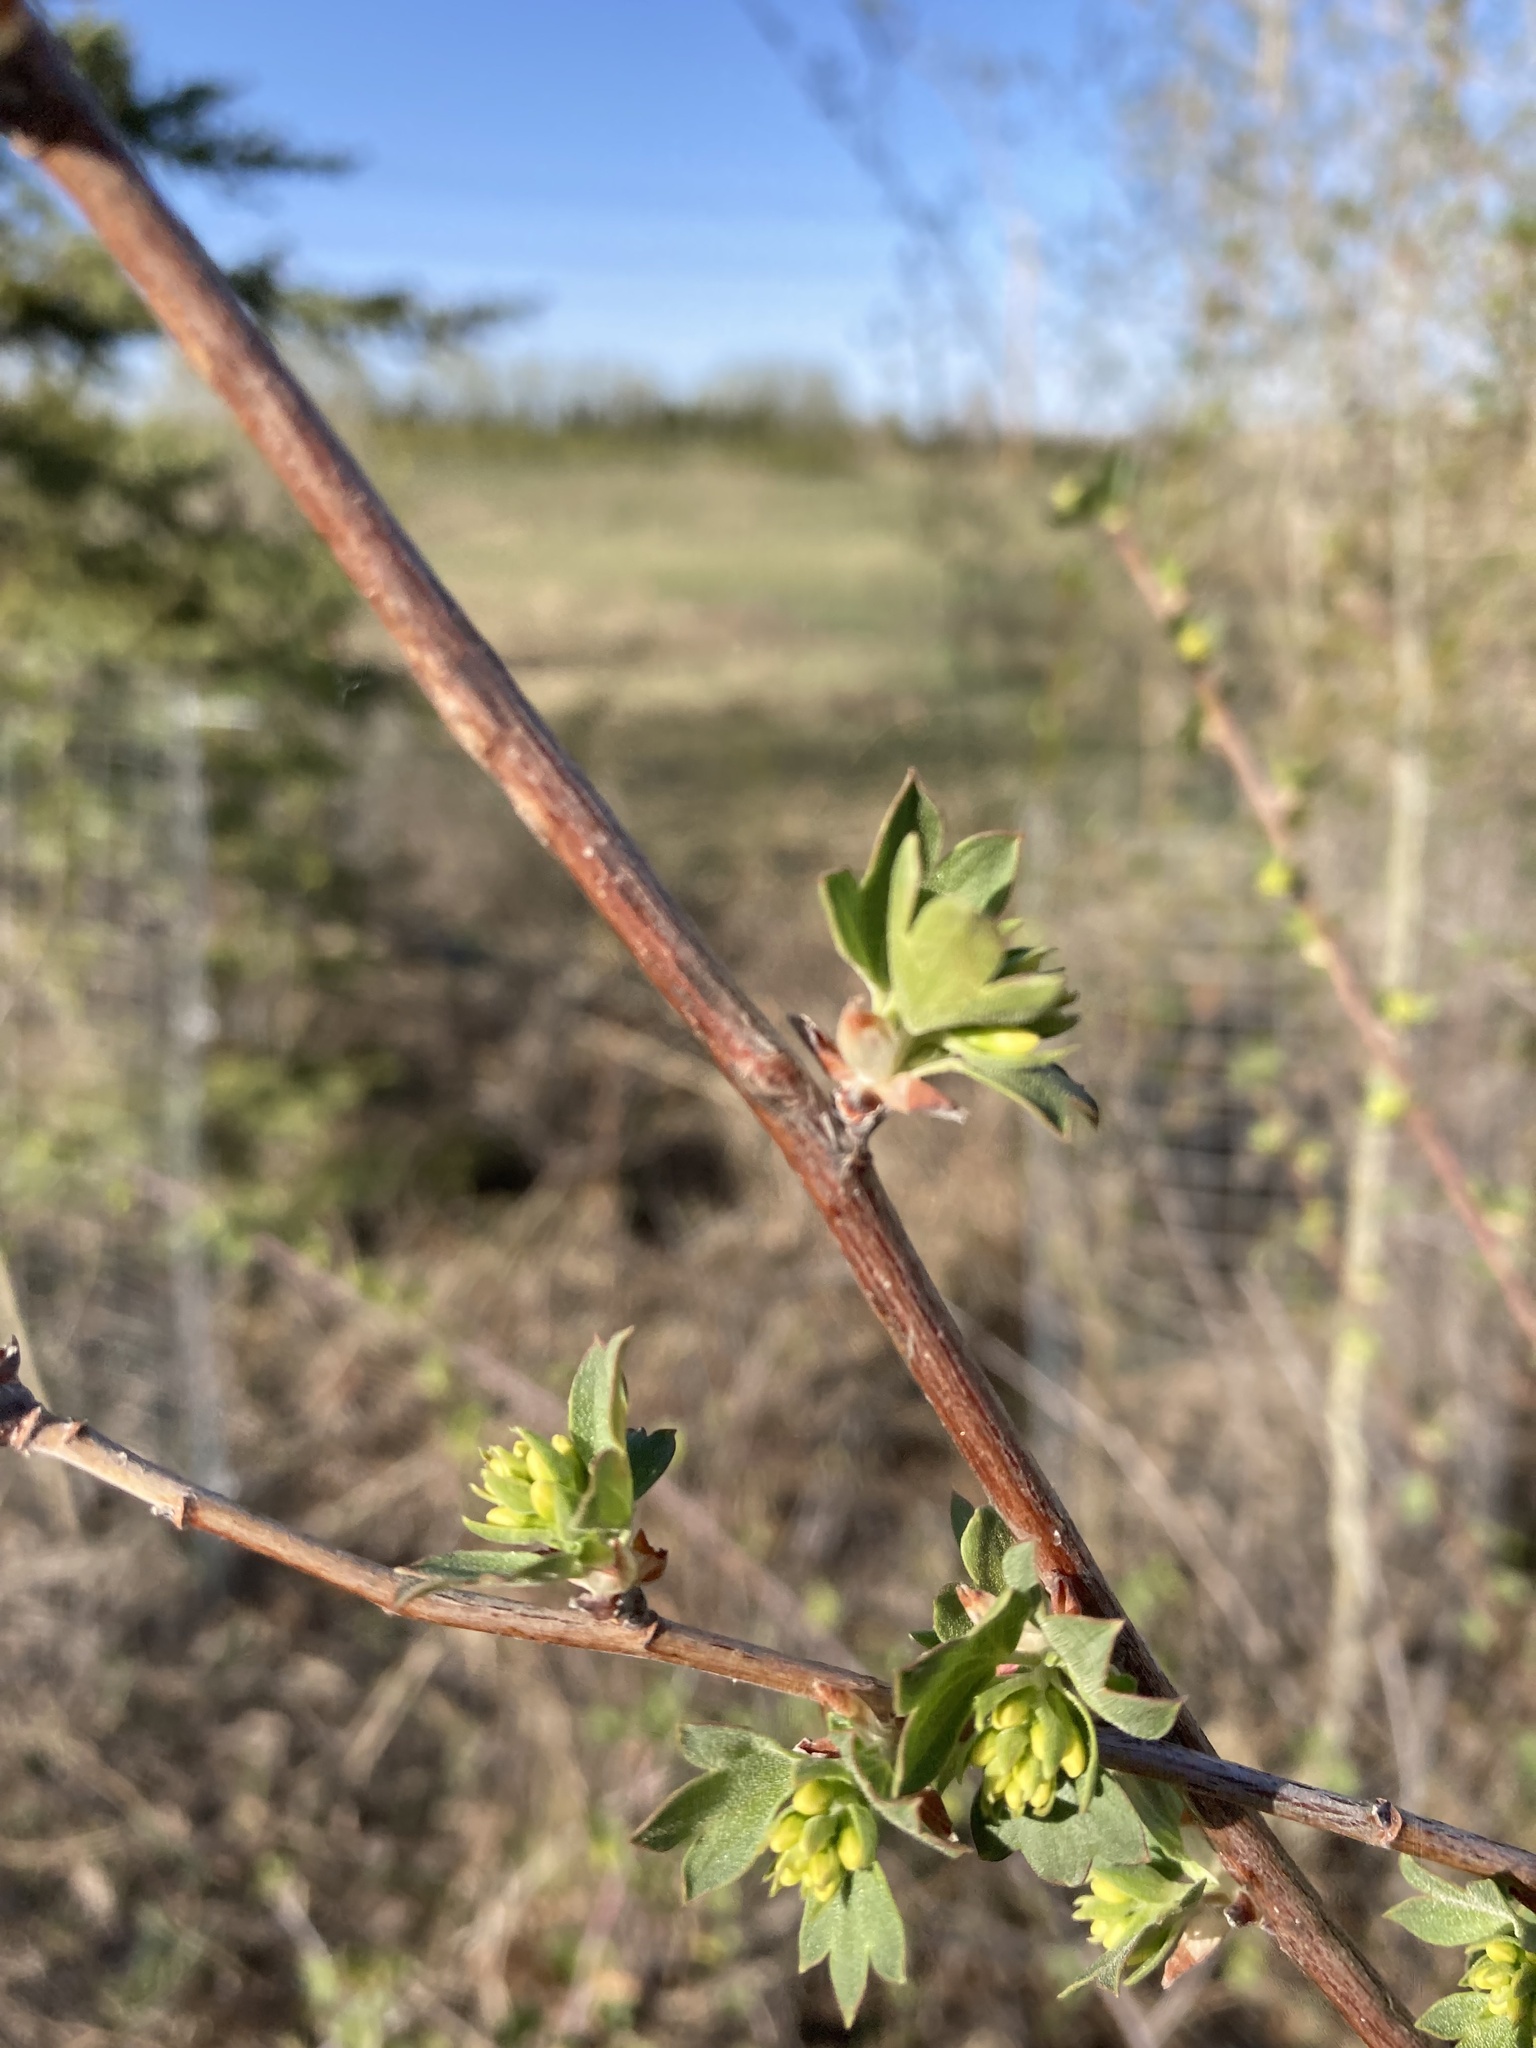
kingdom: Plantae
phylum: Tracheophyta
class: Magnoliopsida
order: Saxifragales
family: Grossulariaceae
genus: Ribes
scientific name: Ribes aureum
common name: Golden currant
